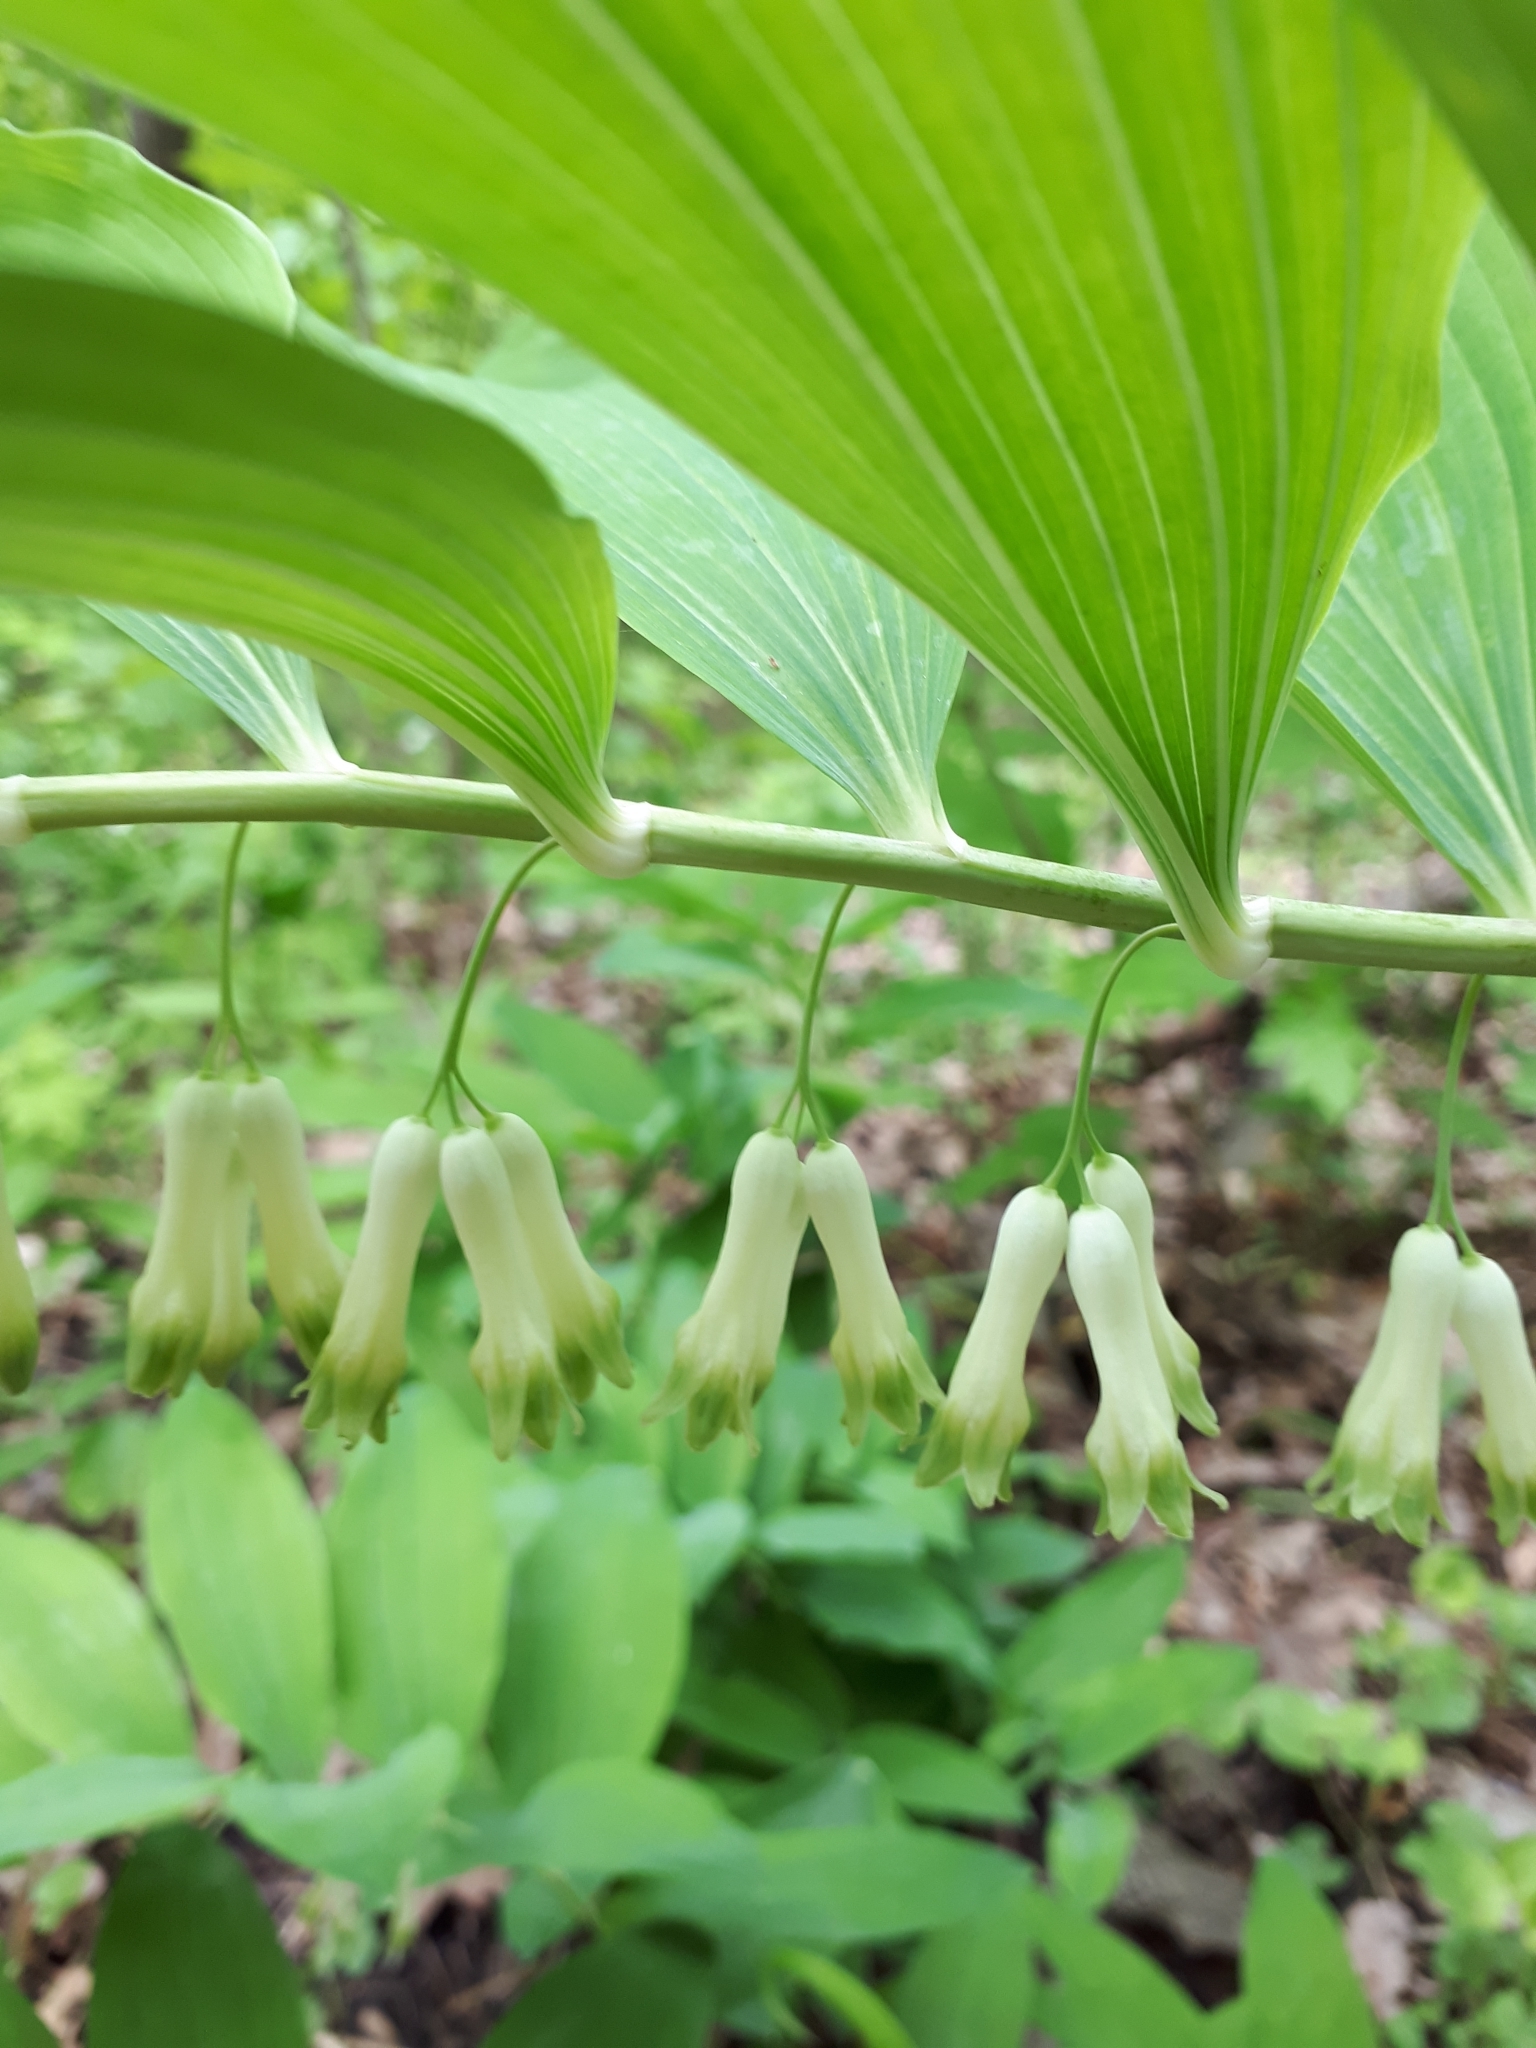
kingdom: Plantae
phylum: Tracheophyta
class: Liliopsida
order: Asparagales
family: Asparagaceae
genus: Polygonatum
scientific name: Polygonatum multiflorum
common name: Solomon's-seal
